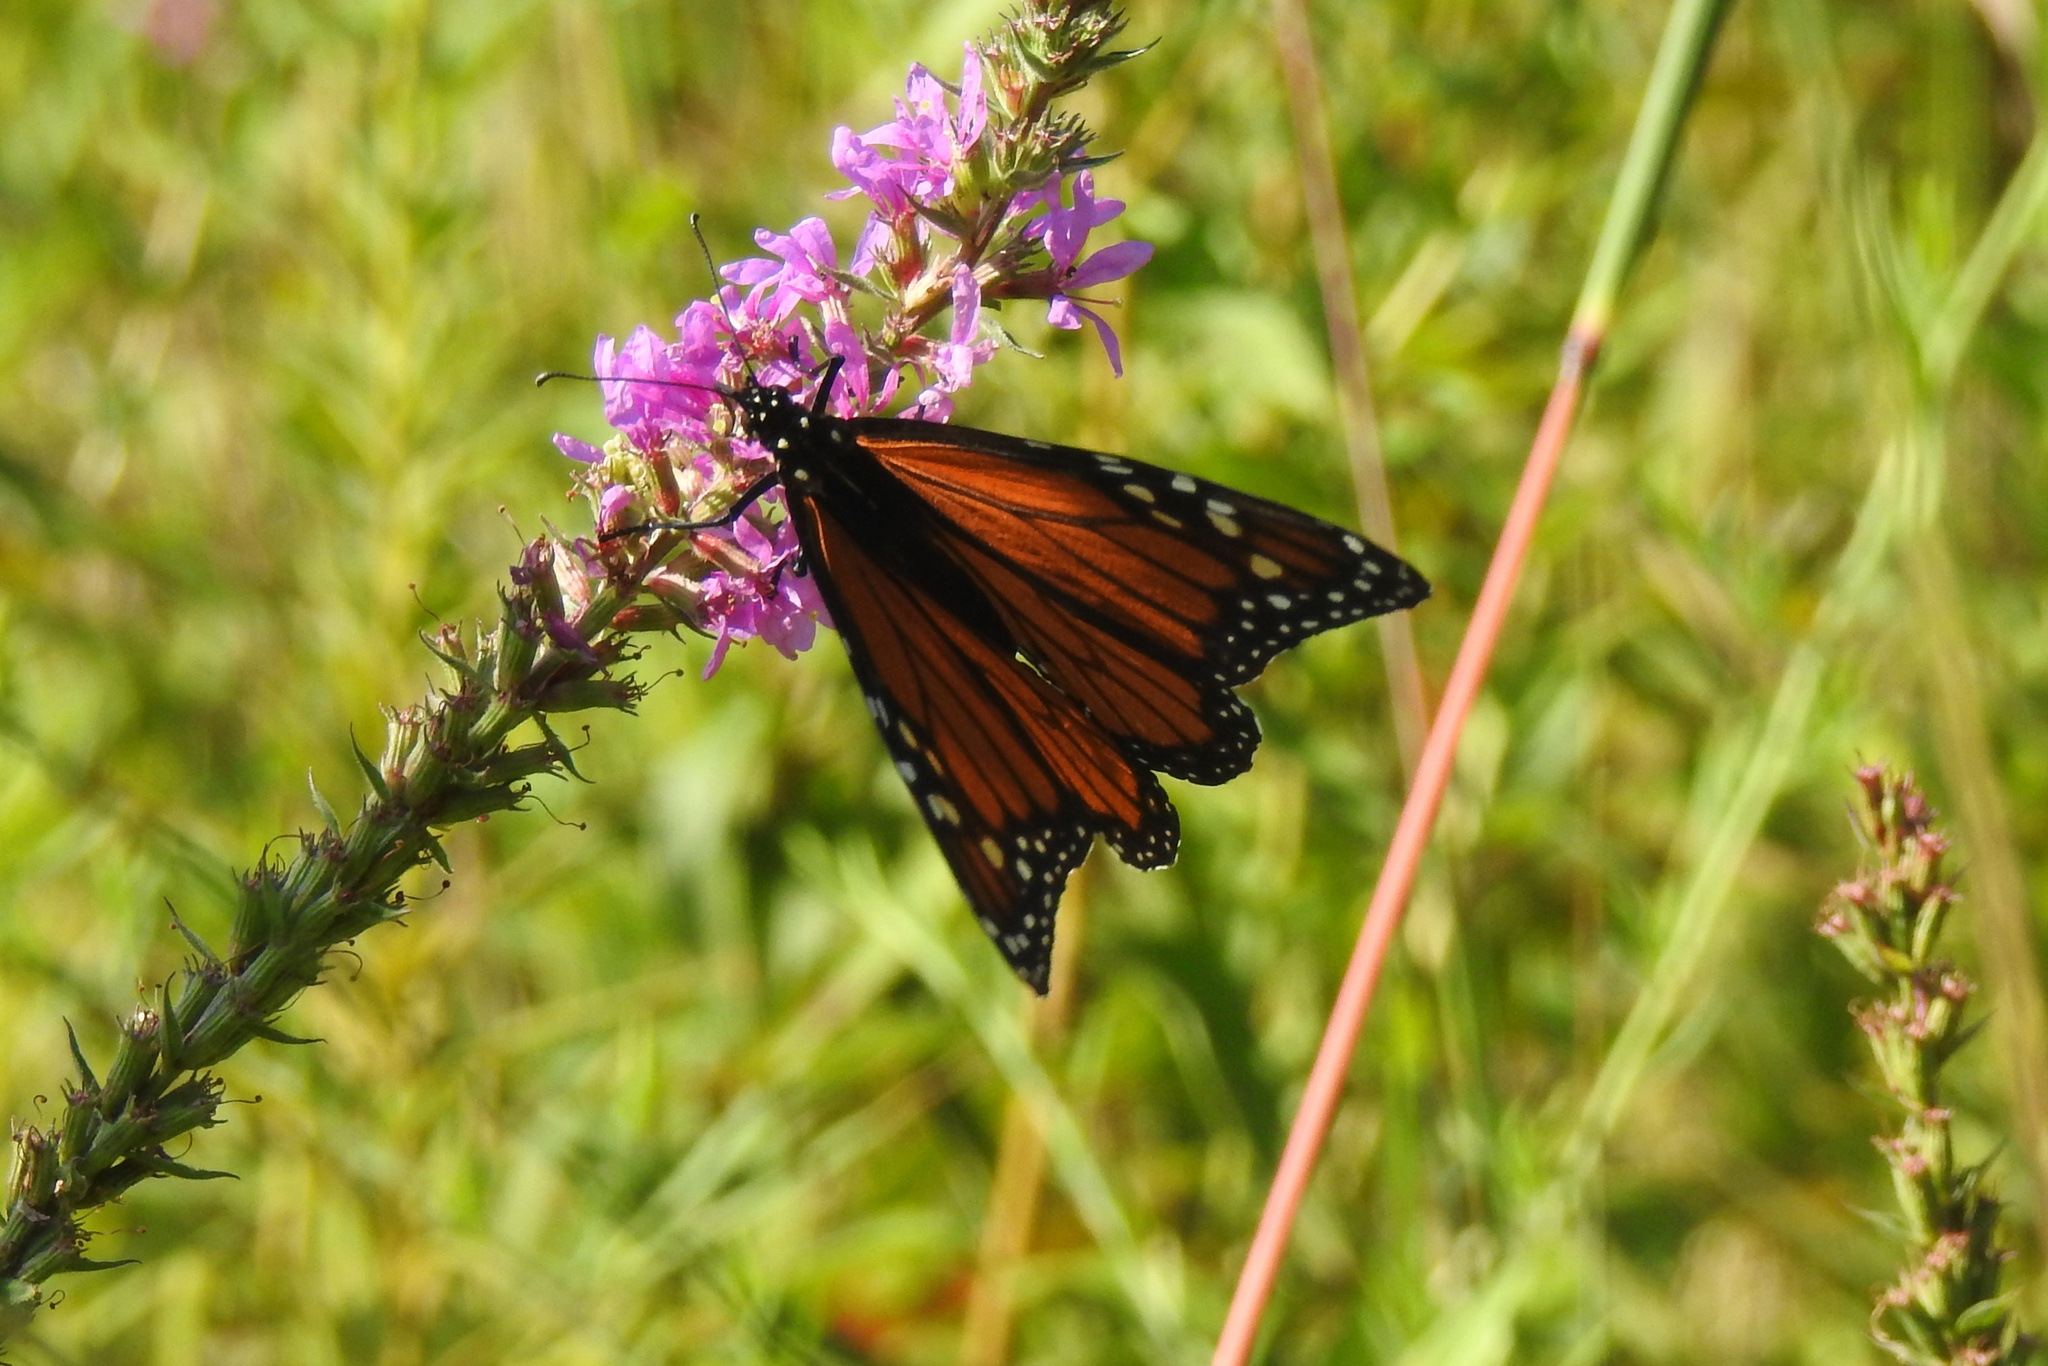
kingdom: Animalia
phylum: Arthropoda
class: Insecta
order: Lepidoptera
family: Nymphalidae
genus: Danaus
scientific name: Danaus plexippus
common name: Monarch
